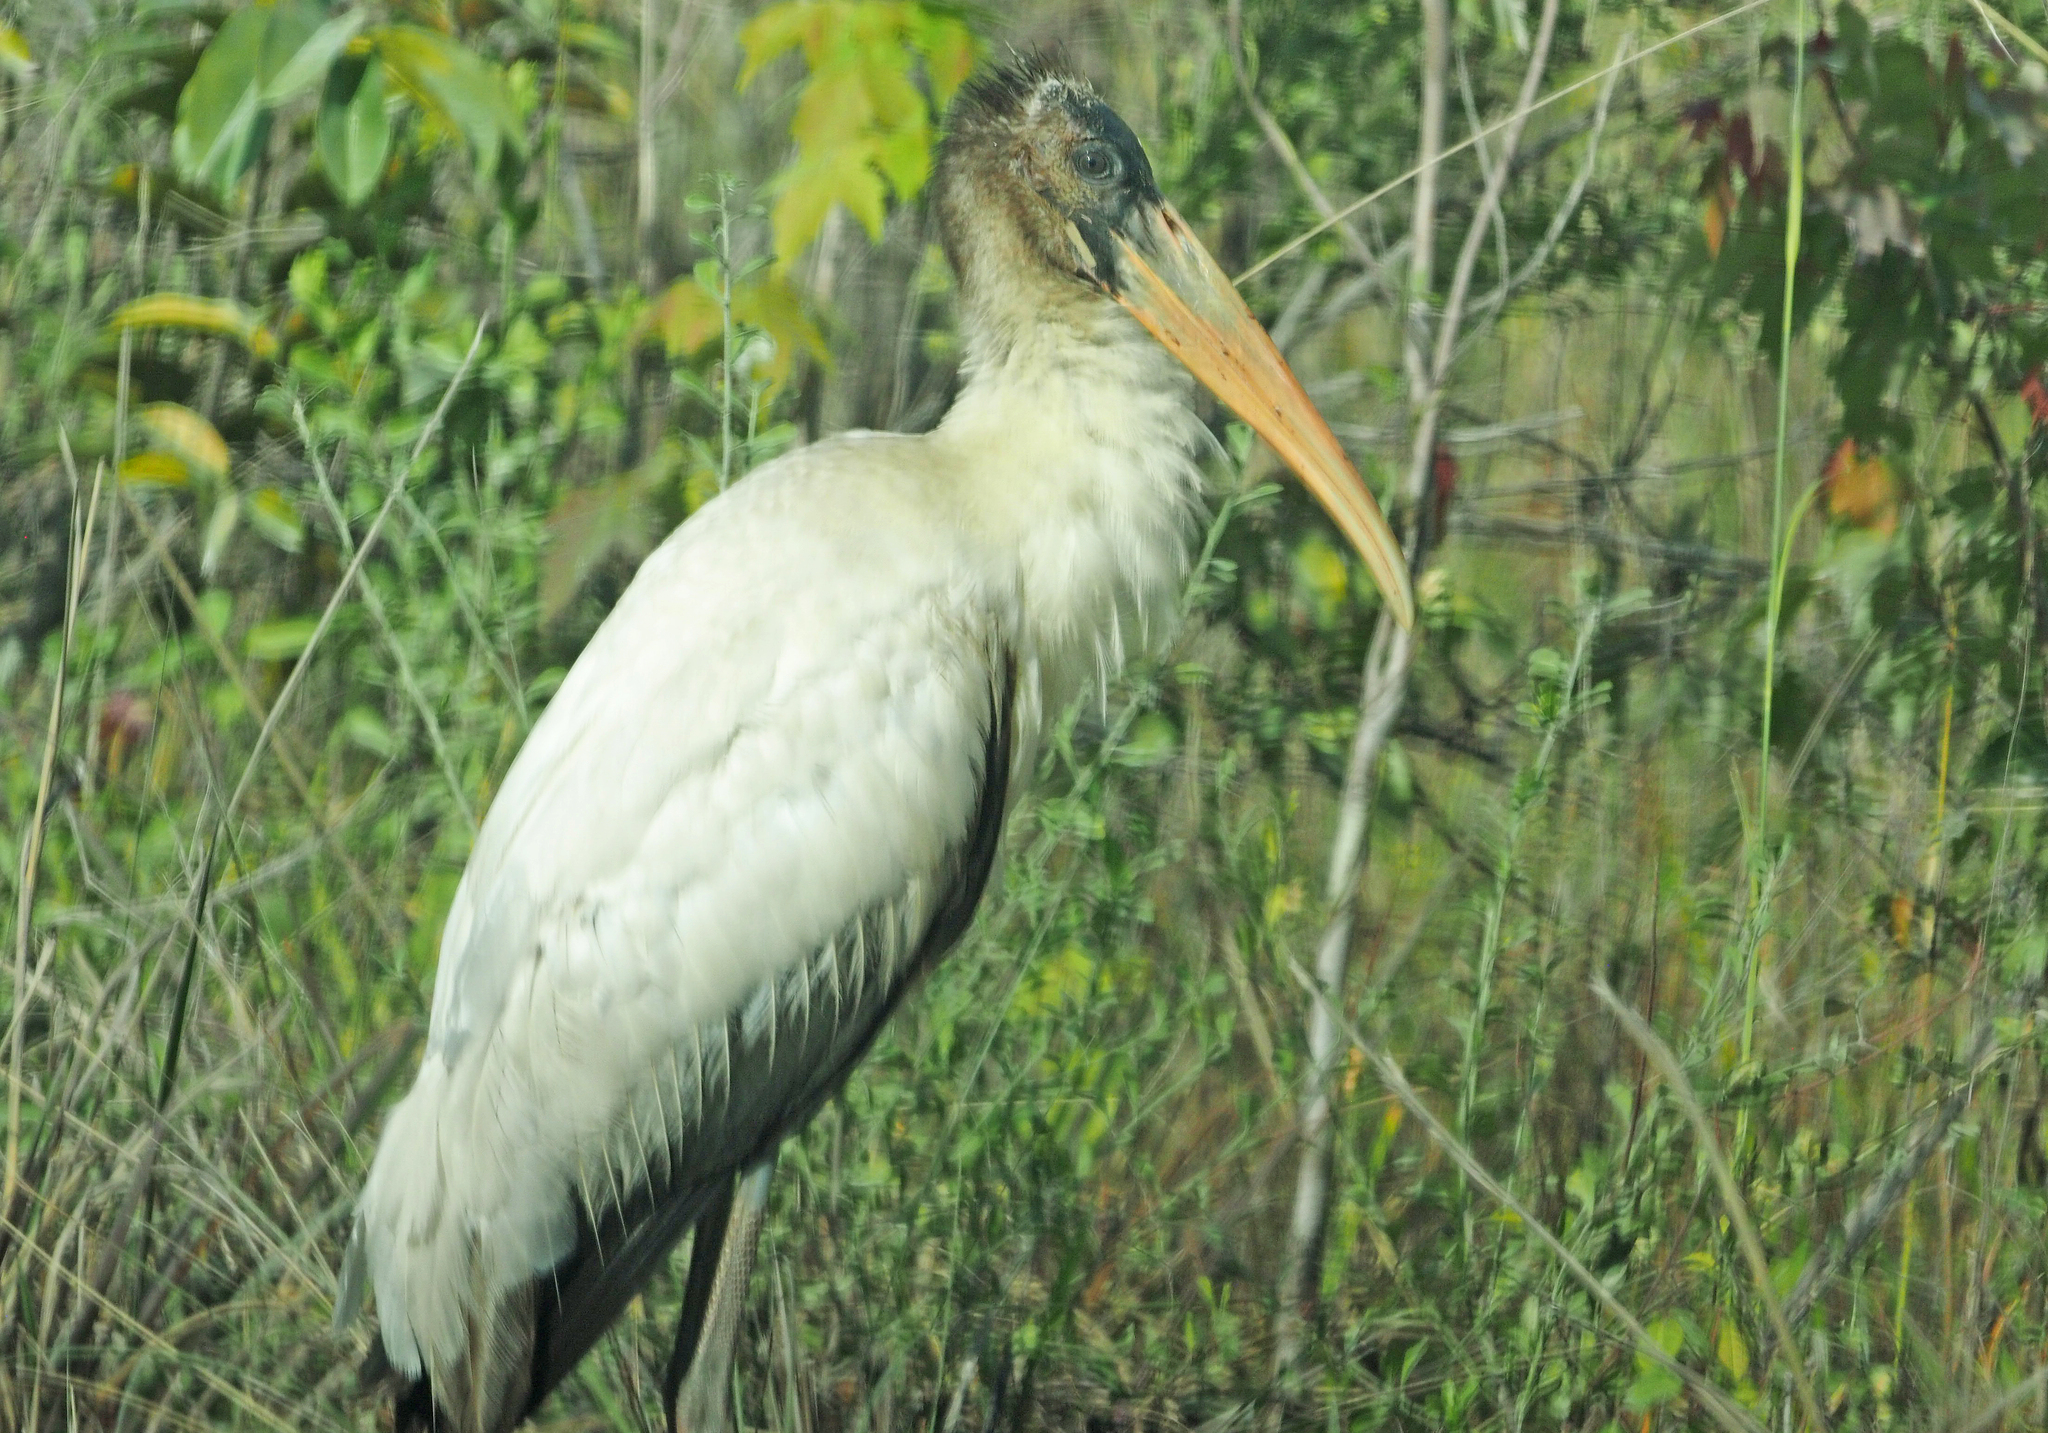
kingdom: Animalia
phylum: Chordata
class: Aves
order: Ciconiiformes
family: Ciconiidae
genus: Mycteria
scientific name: Mycteria americana
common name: Wood stork
